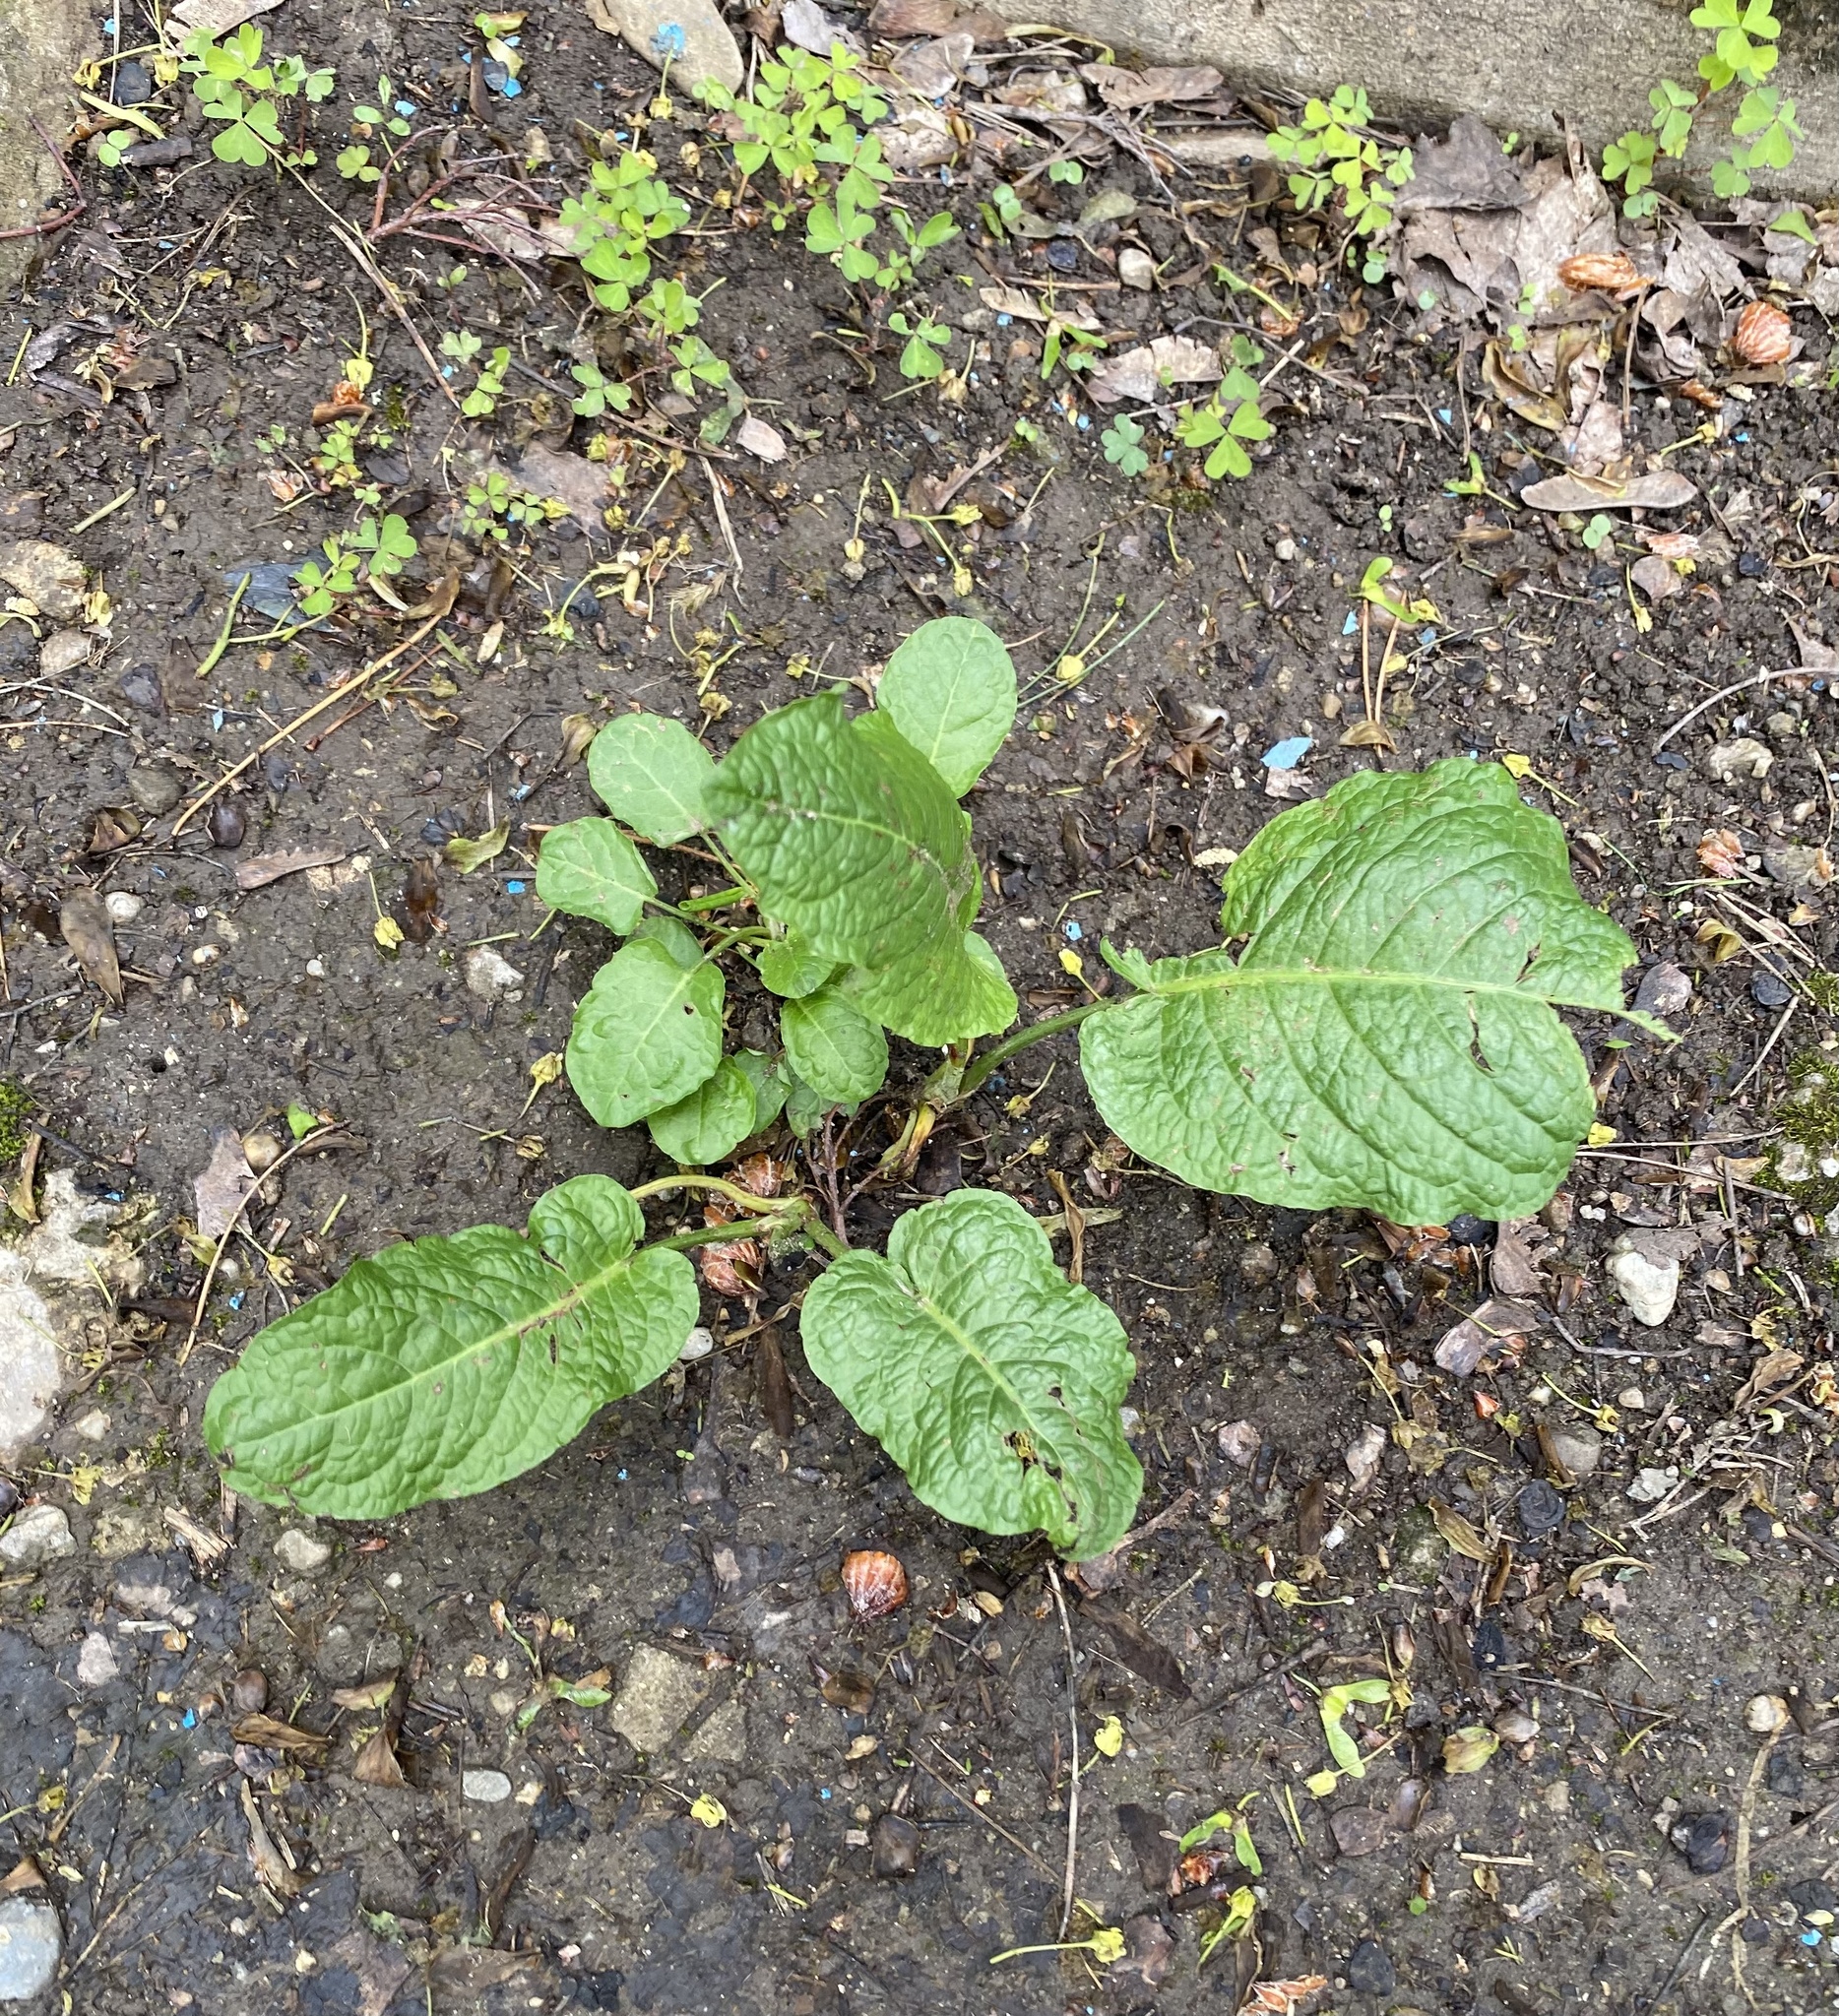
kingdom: Plantae
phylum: Tracheophyta
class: Magnoliopsida
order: Caryophyllales
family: Polygonaceae
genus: Rumex
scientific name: Rumex obtusifolius
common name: Bitter dock
